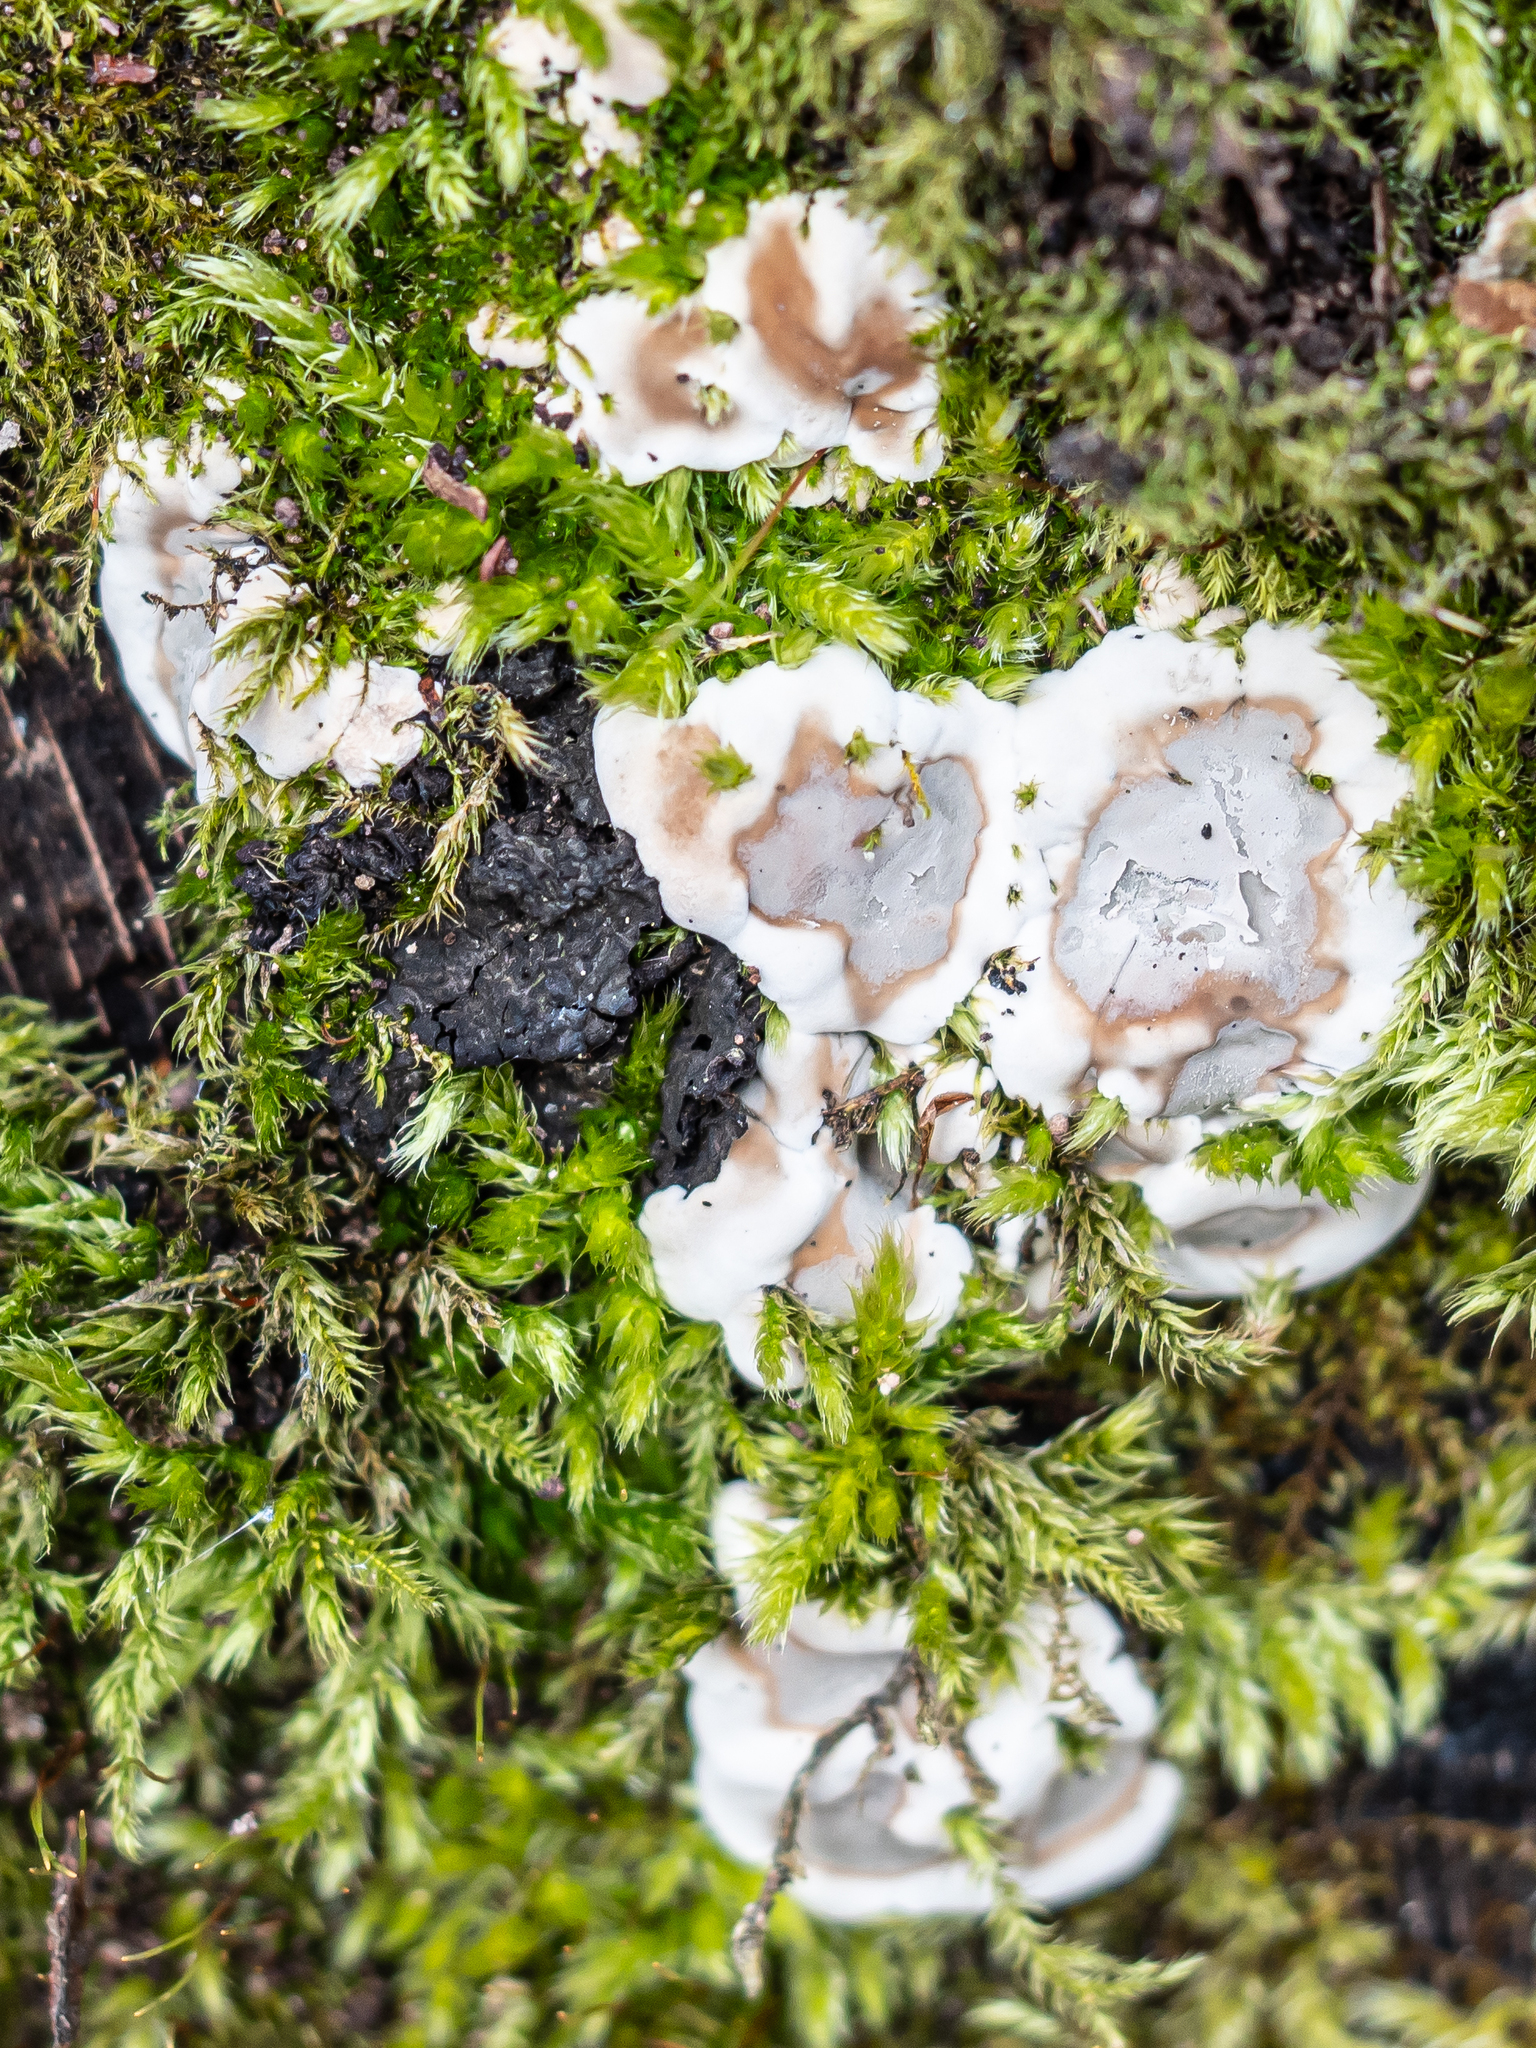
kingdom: Fungi
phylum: Ascomycota
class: Sordariomycetes
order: Xylariales
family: Xylariaceae
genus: Kretzschmaria
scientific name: Kretzschmaria deusta
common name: Brittle cinder
